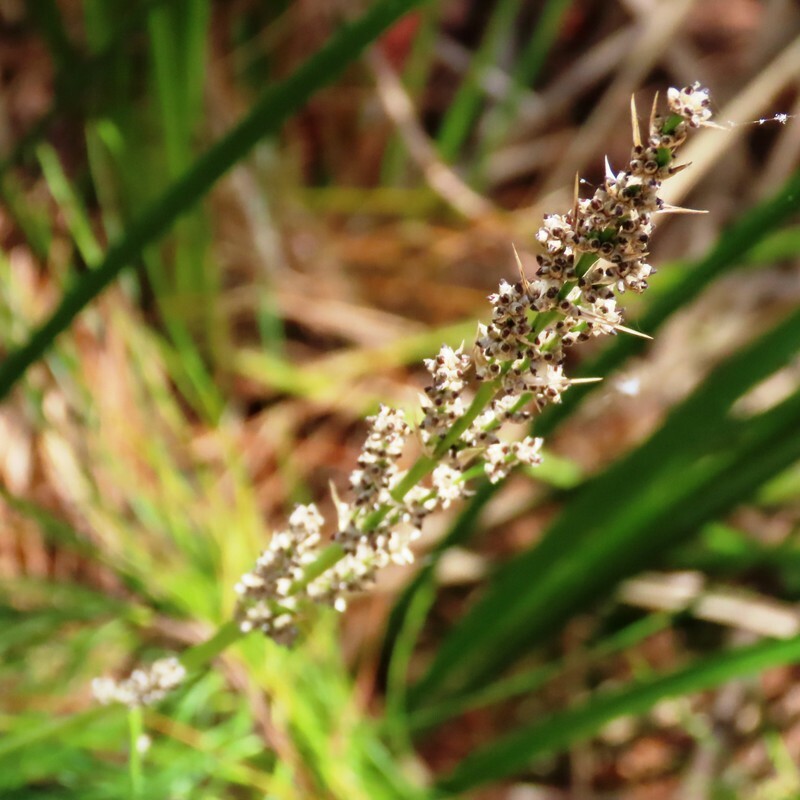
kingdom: Plantae
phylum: Tracheophyta
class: Liliopsida
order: Asparagales
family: Asparagaceae
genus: Lomandra
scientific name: Lomandra longifolia
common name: Longleaf mat-rush
